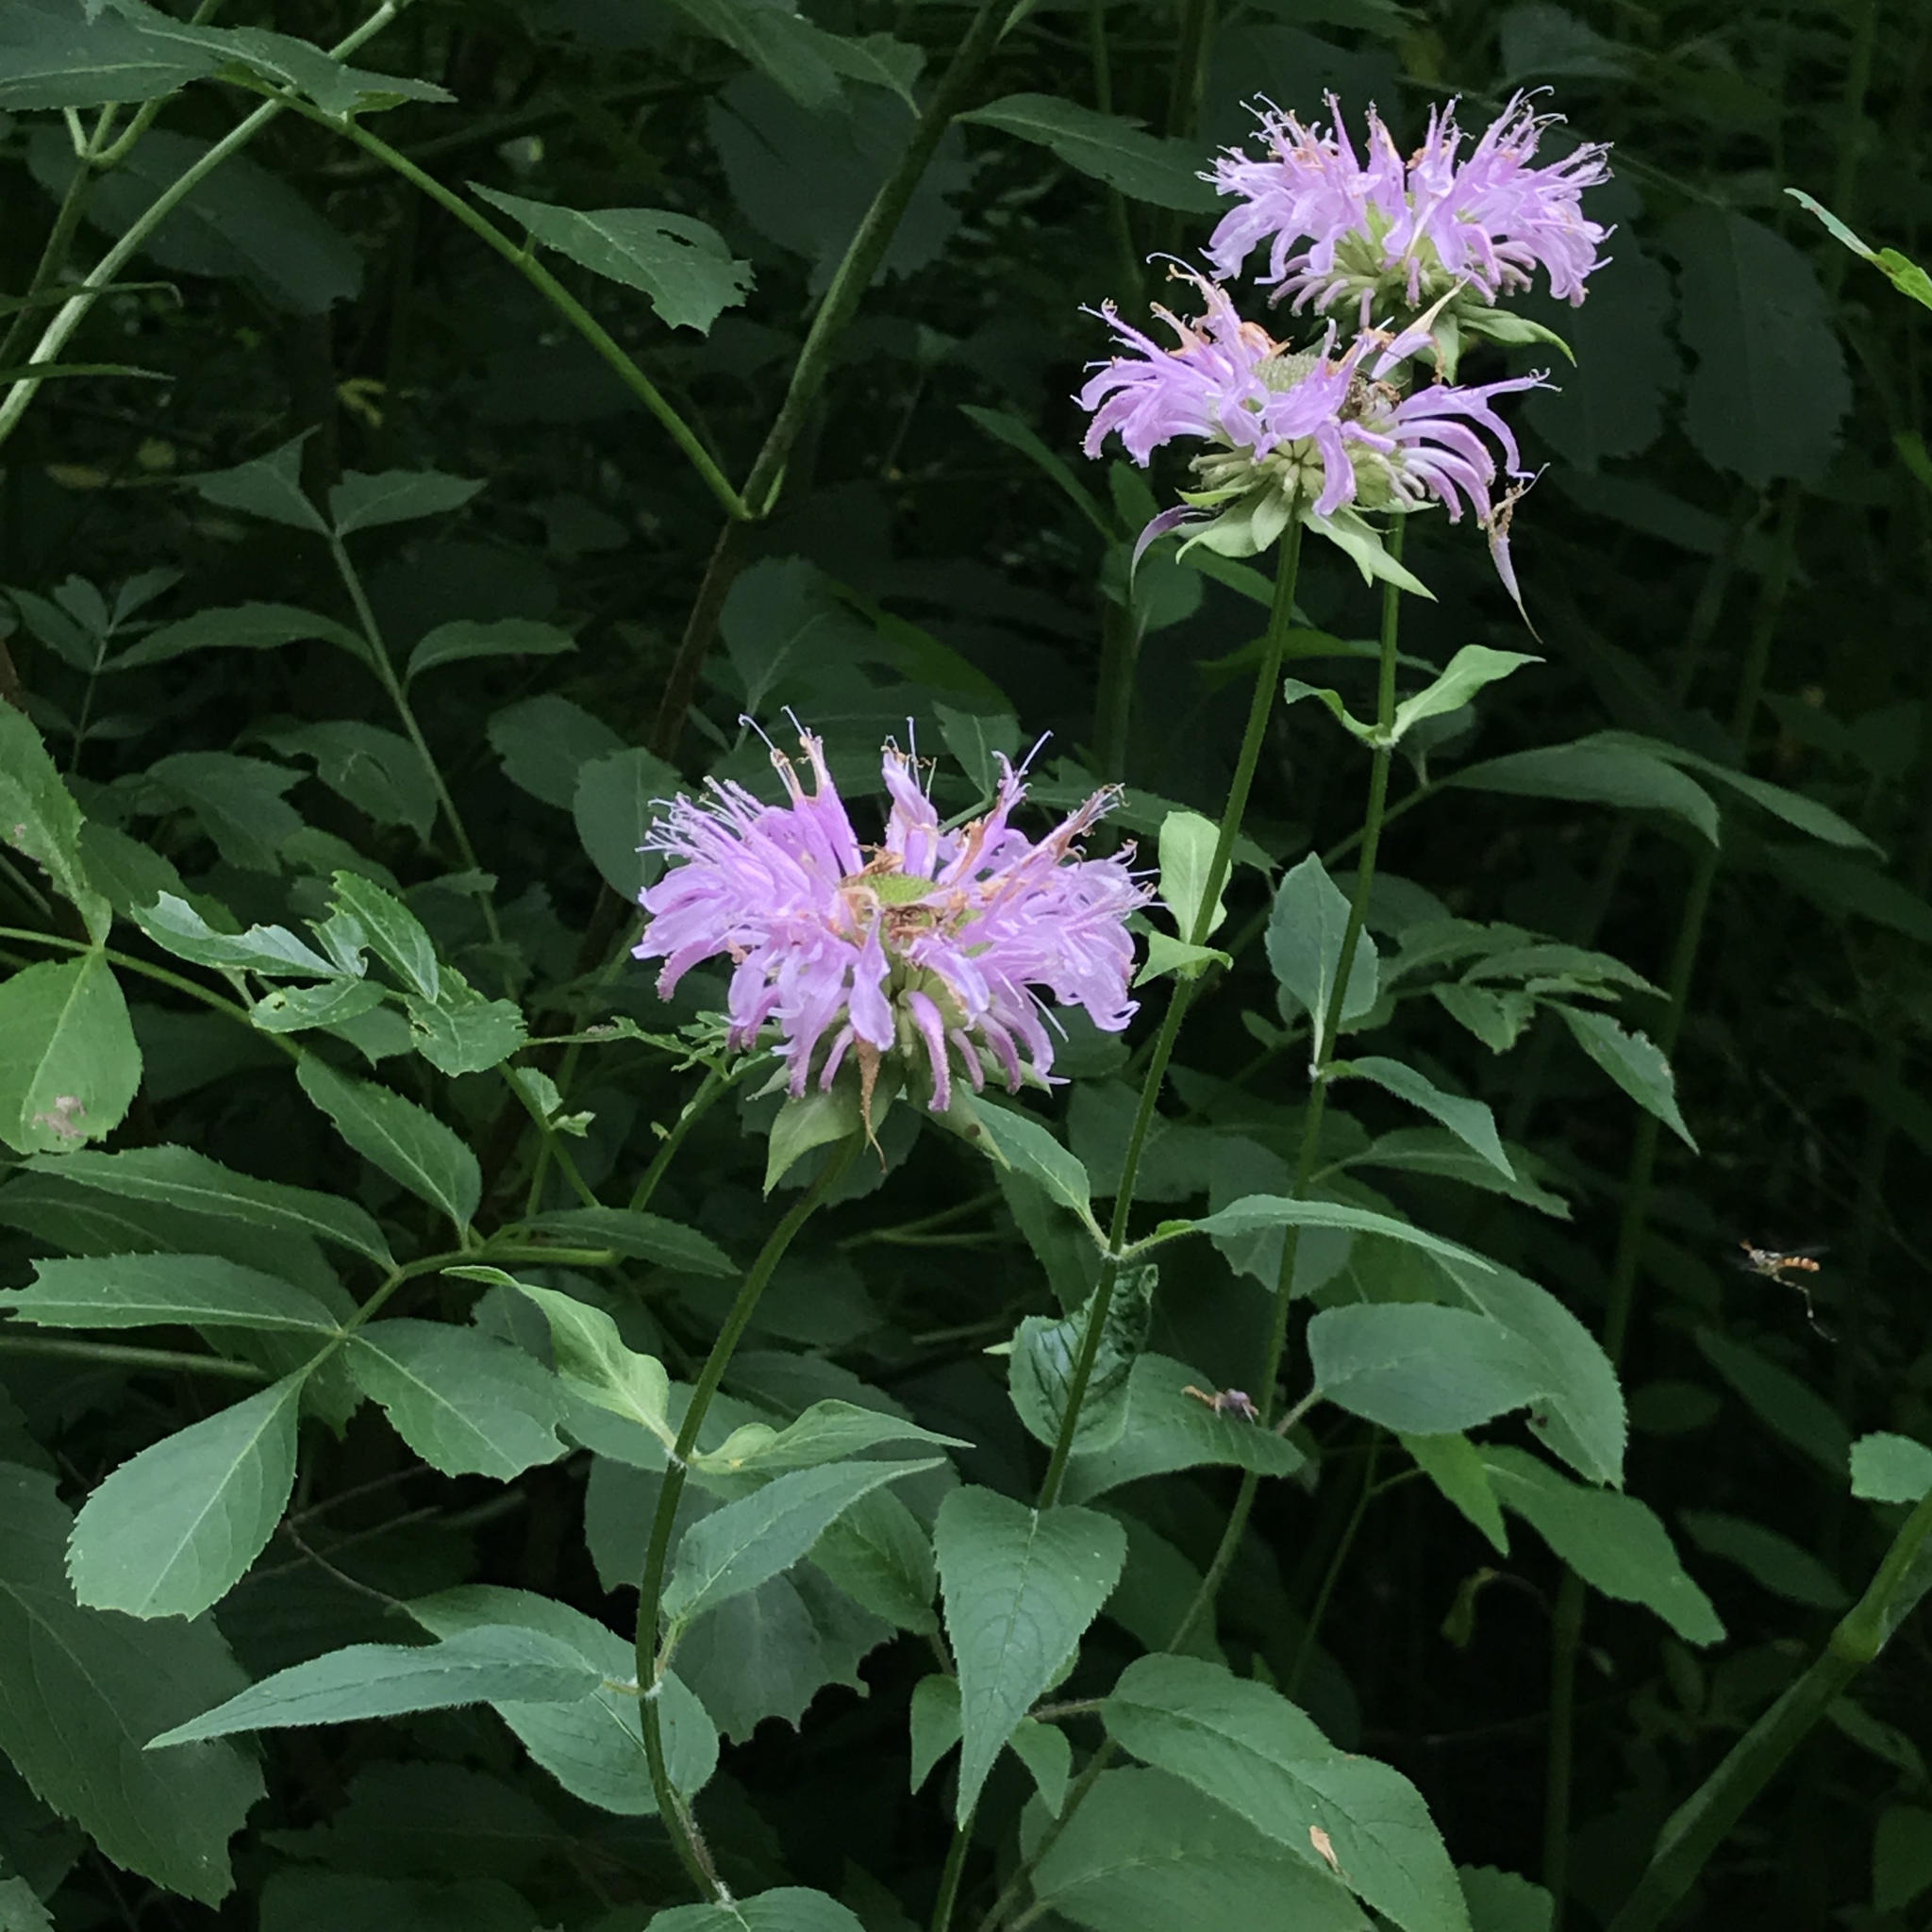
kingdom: Plantae
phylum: Tracheophyta
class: Magnoliopsida
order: Lamiales
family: Lamiaceae
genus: Monarda
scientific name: Monarda fistulosa
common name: Purple beebalm
